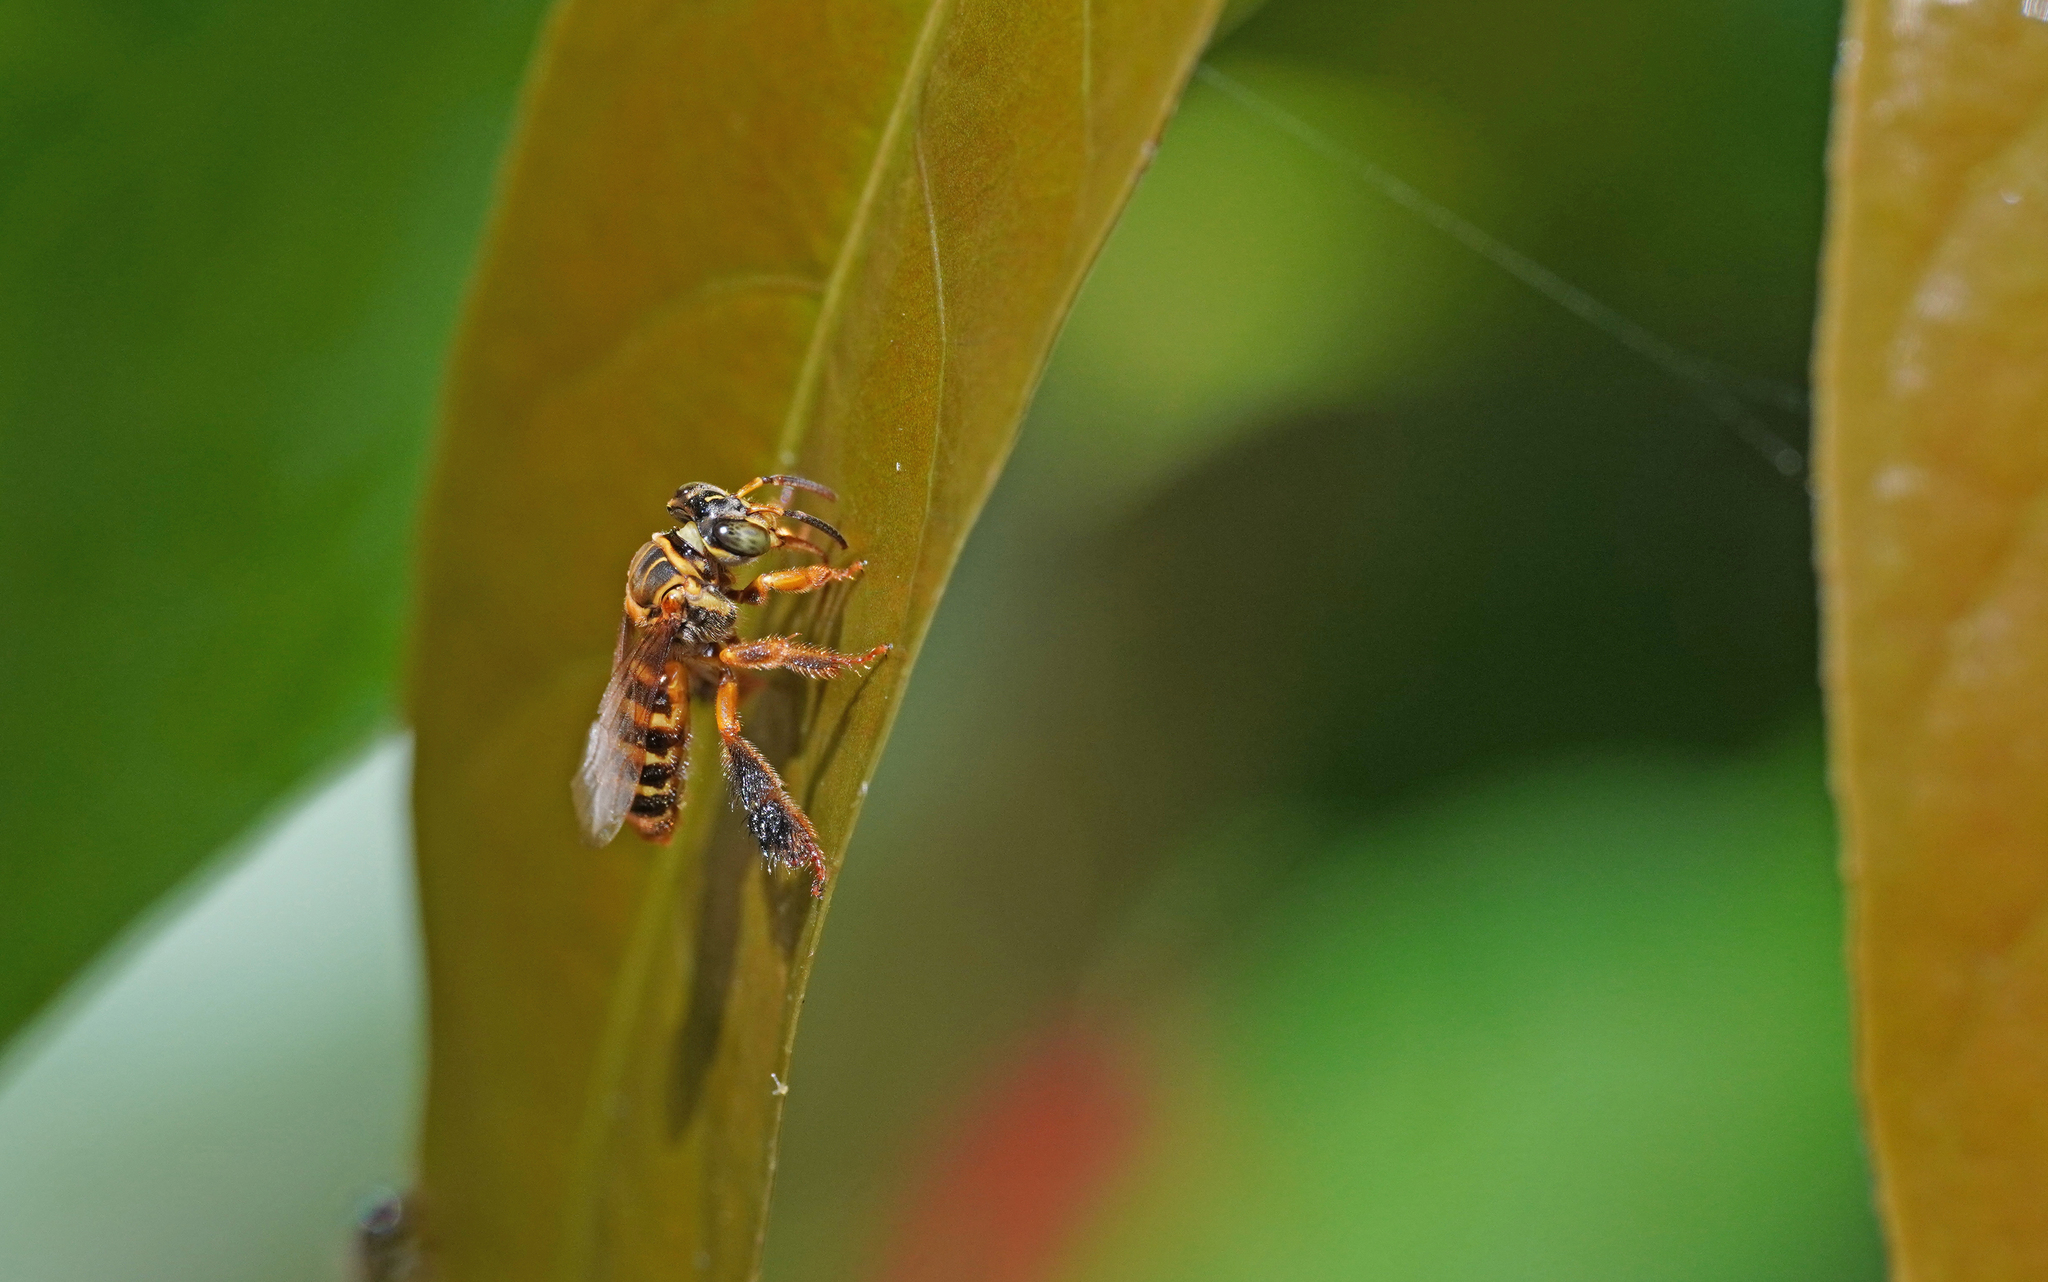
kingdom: Animalia
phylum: Arthropoda
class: Insecta
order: Hymenoptera
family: Apidae
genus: Paratetrapedia
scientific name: Paratetrapedia lineata
